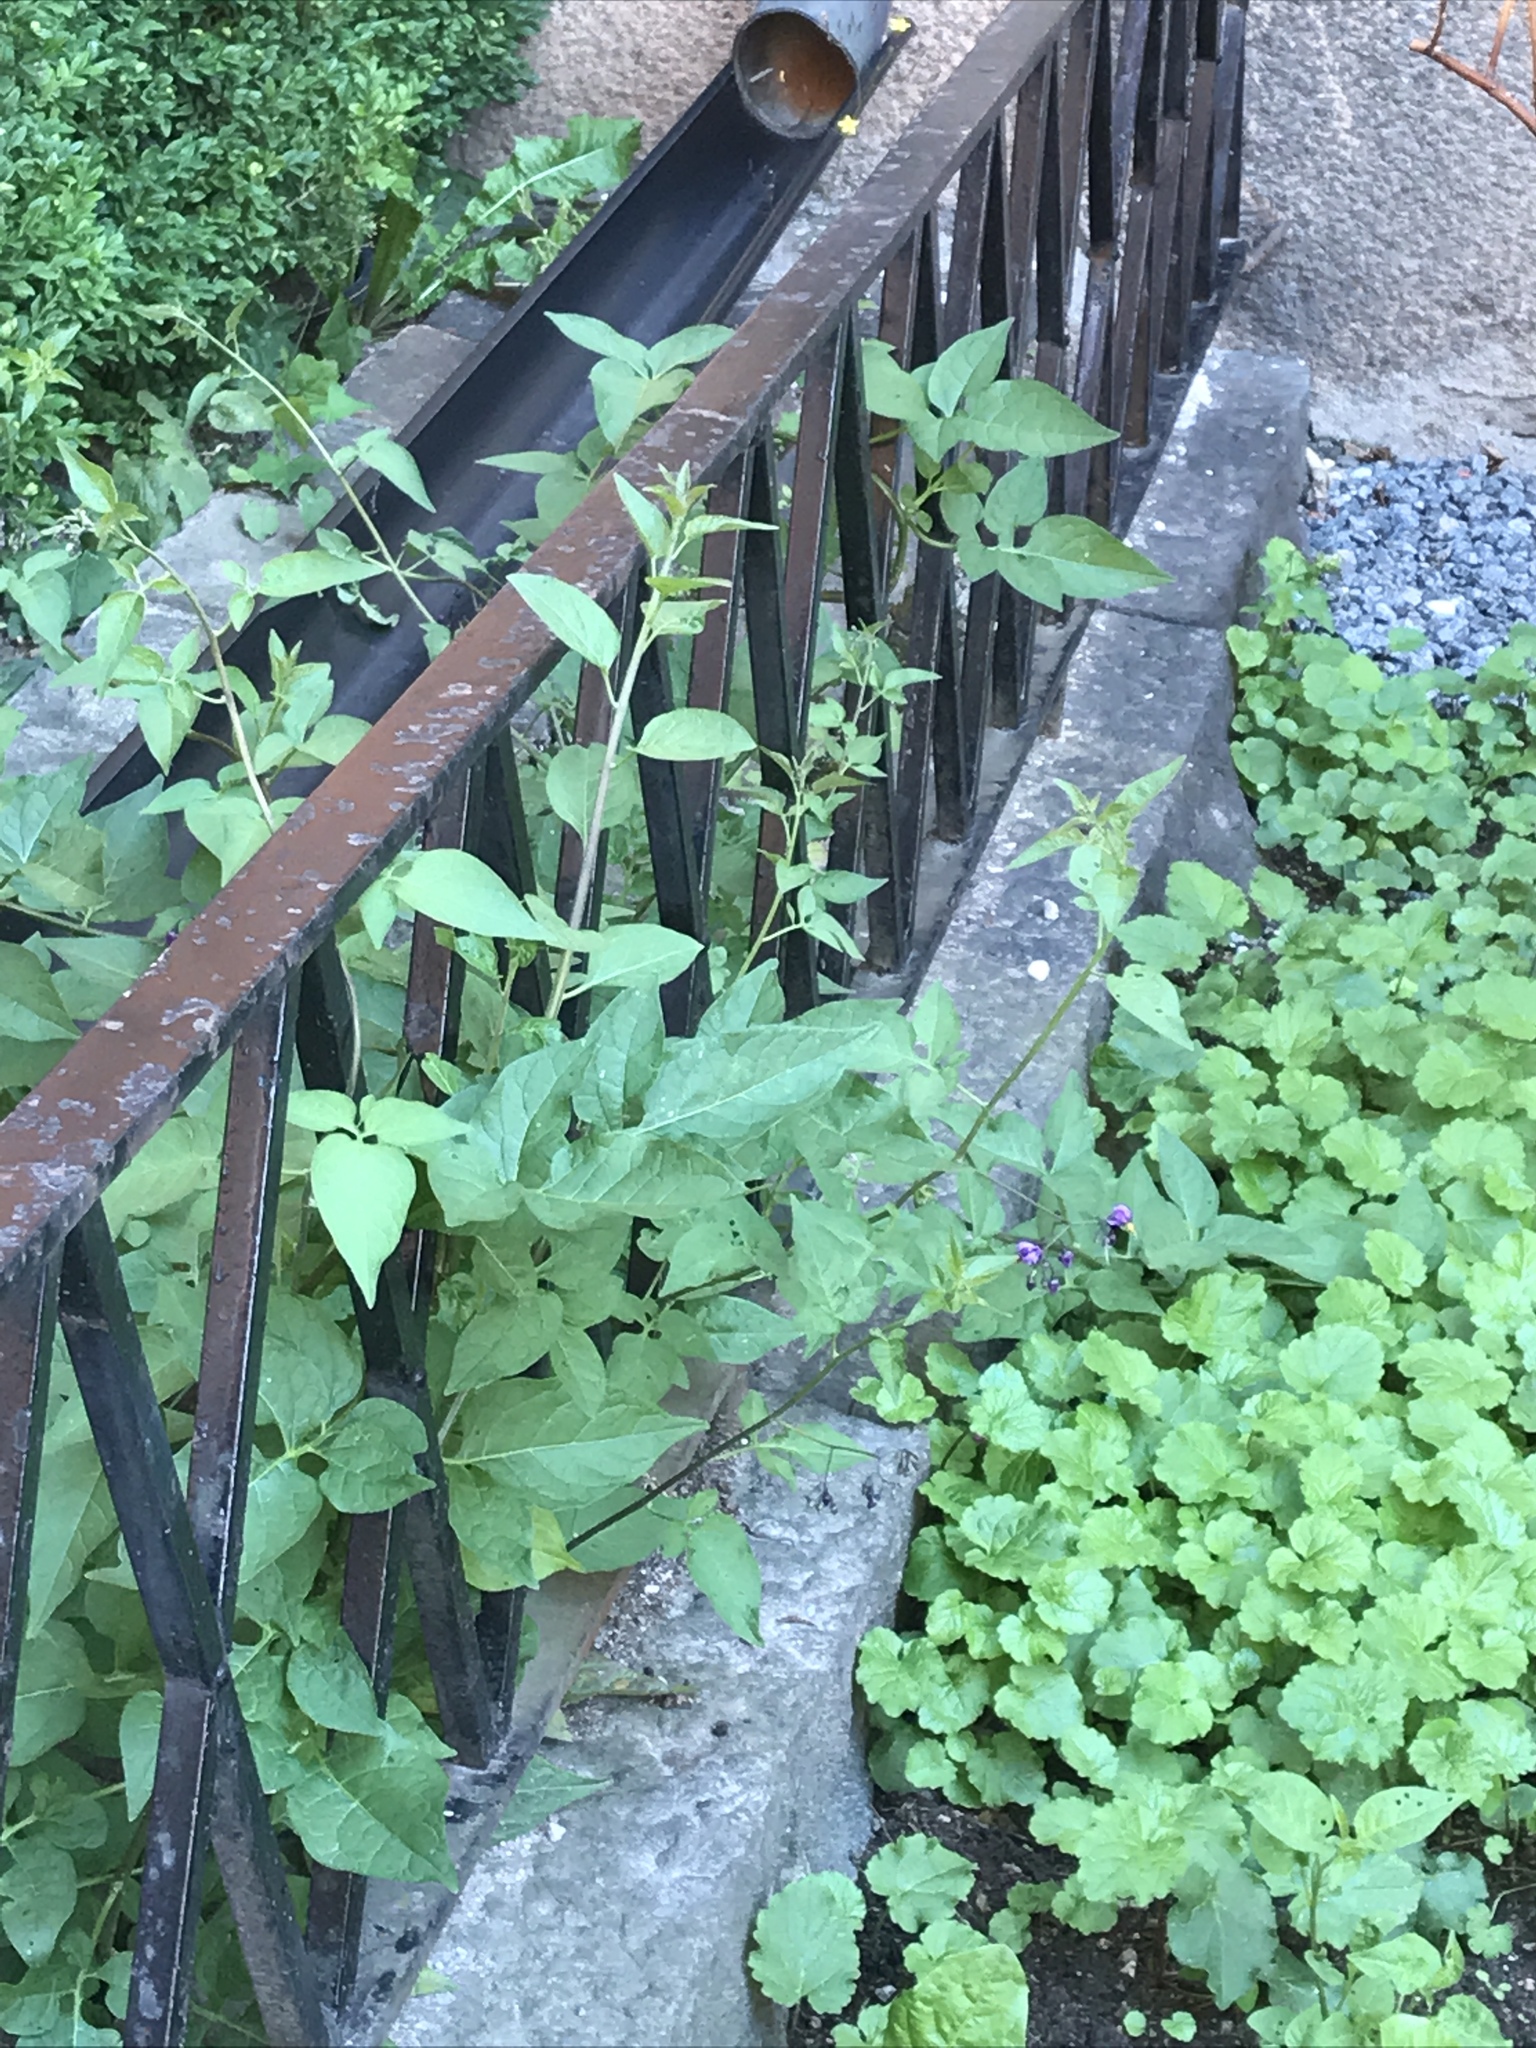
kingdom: Plantae
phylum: Tracheophyta
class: Magnoliopsida
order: Solanales
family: Solanaceae
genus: Solanum
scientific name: Solanum dulcamara
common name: Climbing nightshade
